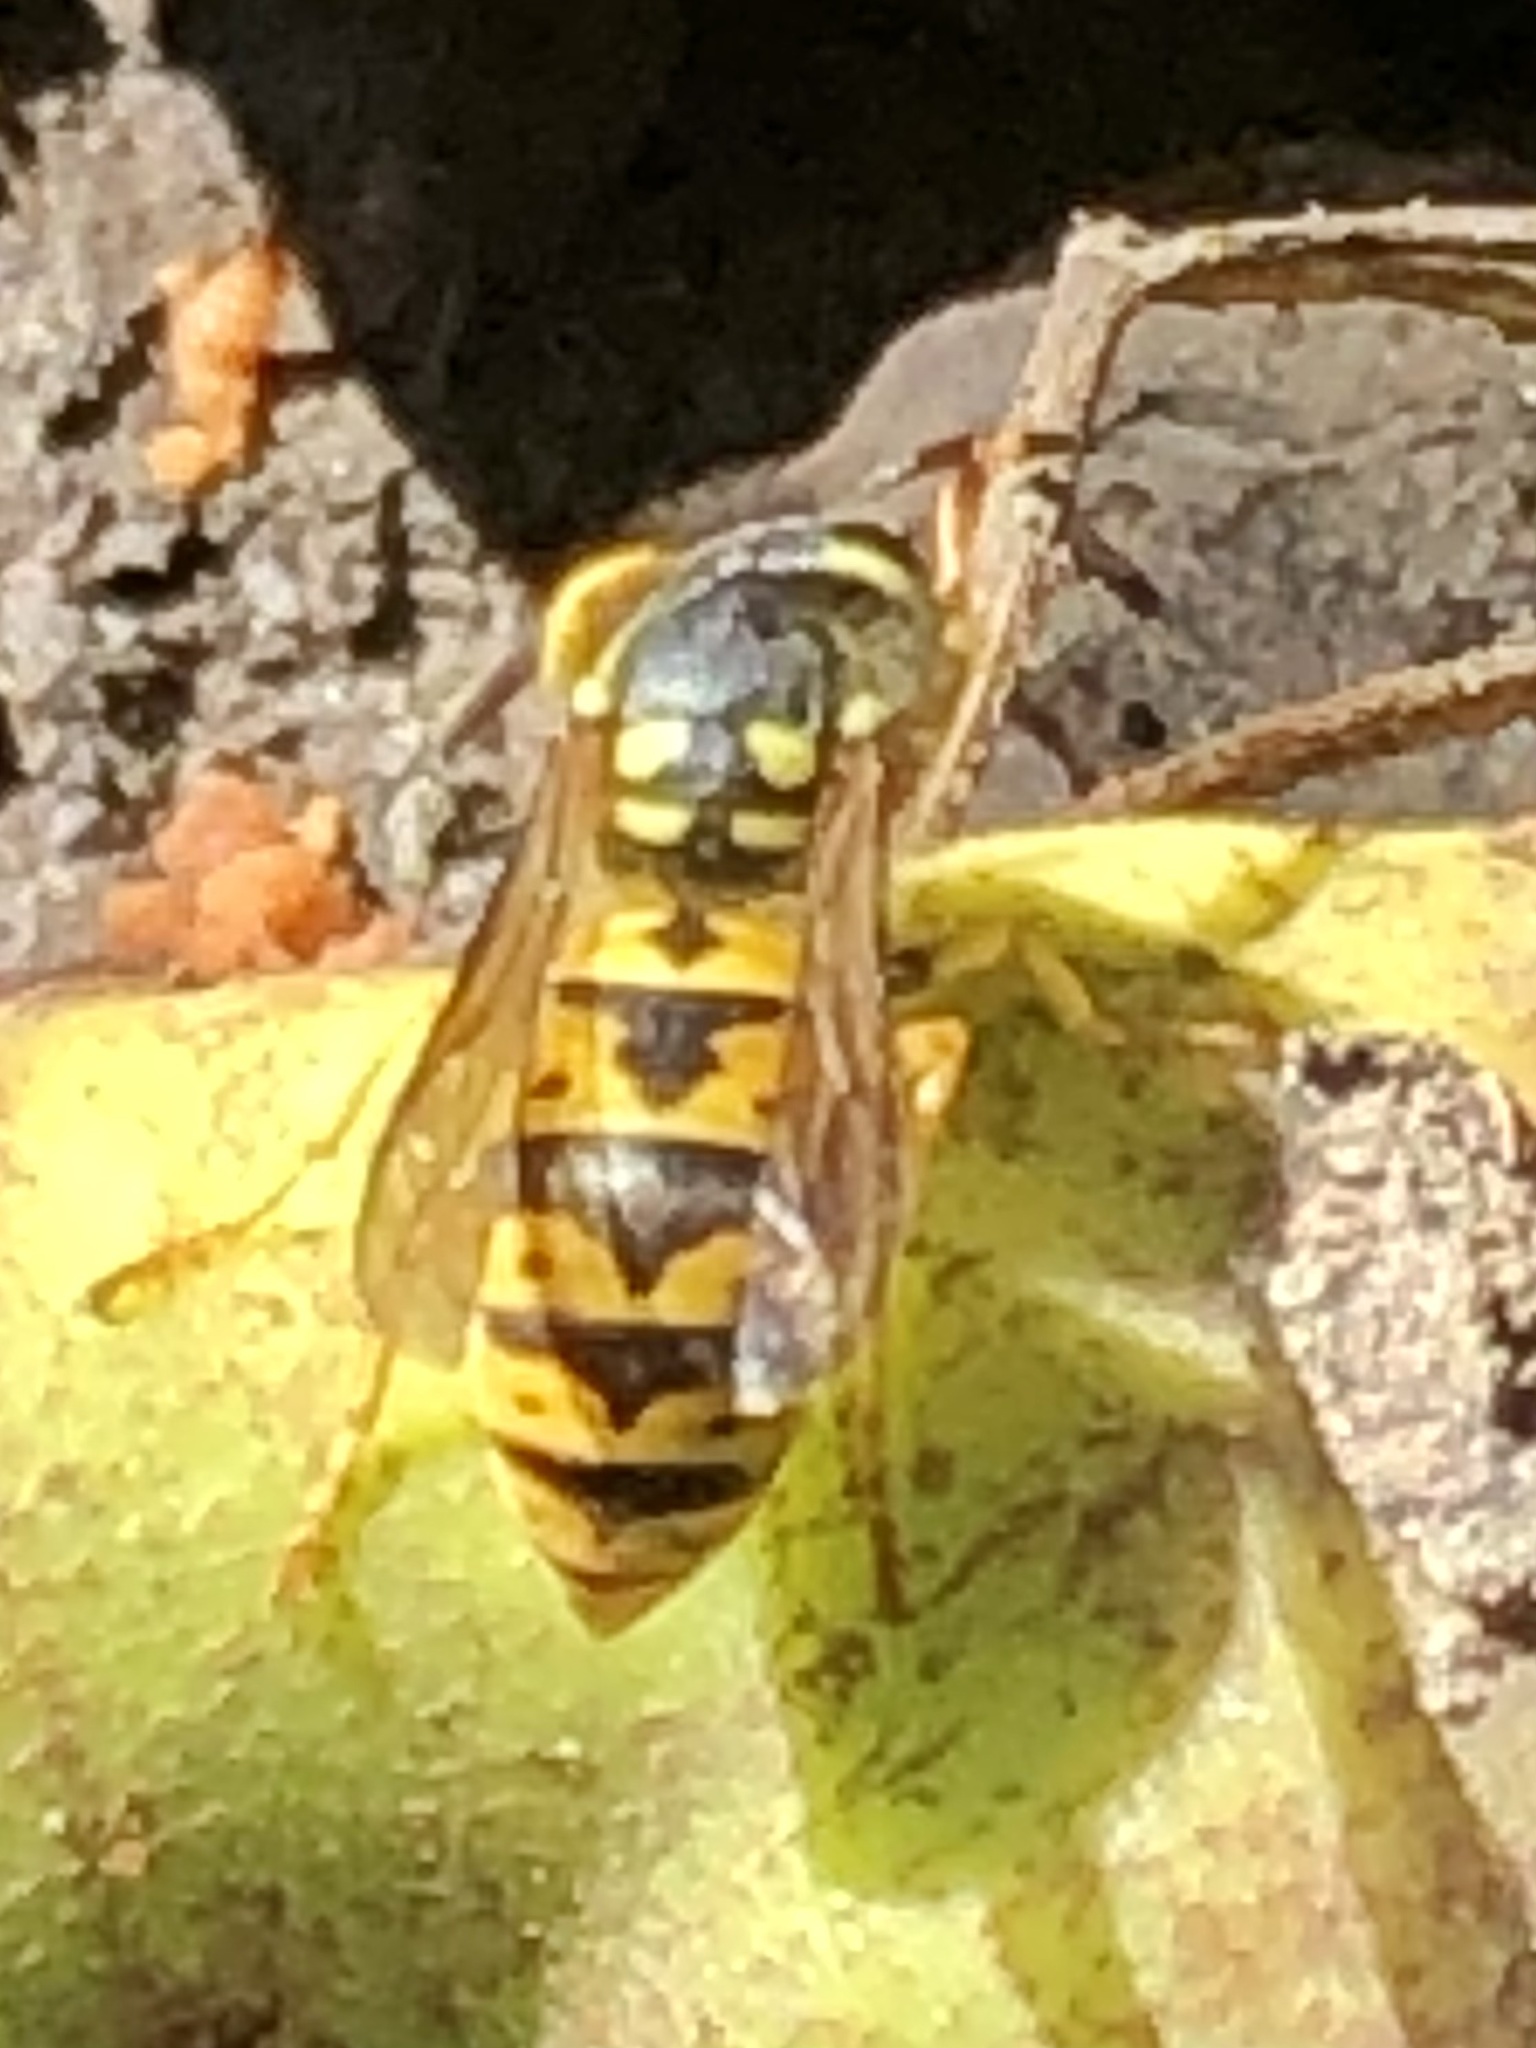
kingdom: Animalia
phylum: Arthropoda
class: Insecta
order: Hymenoptera
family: Vespidae
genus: Vespula
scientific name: Vespula germanica
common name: German wasp
